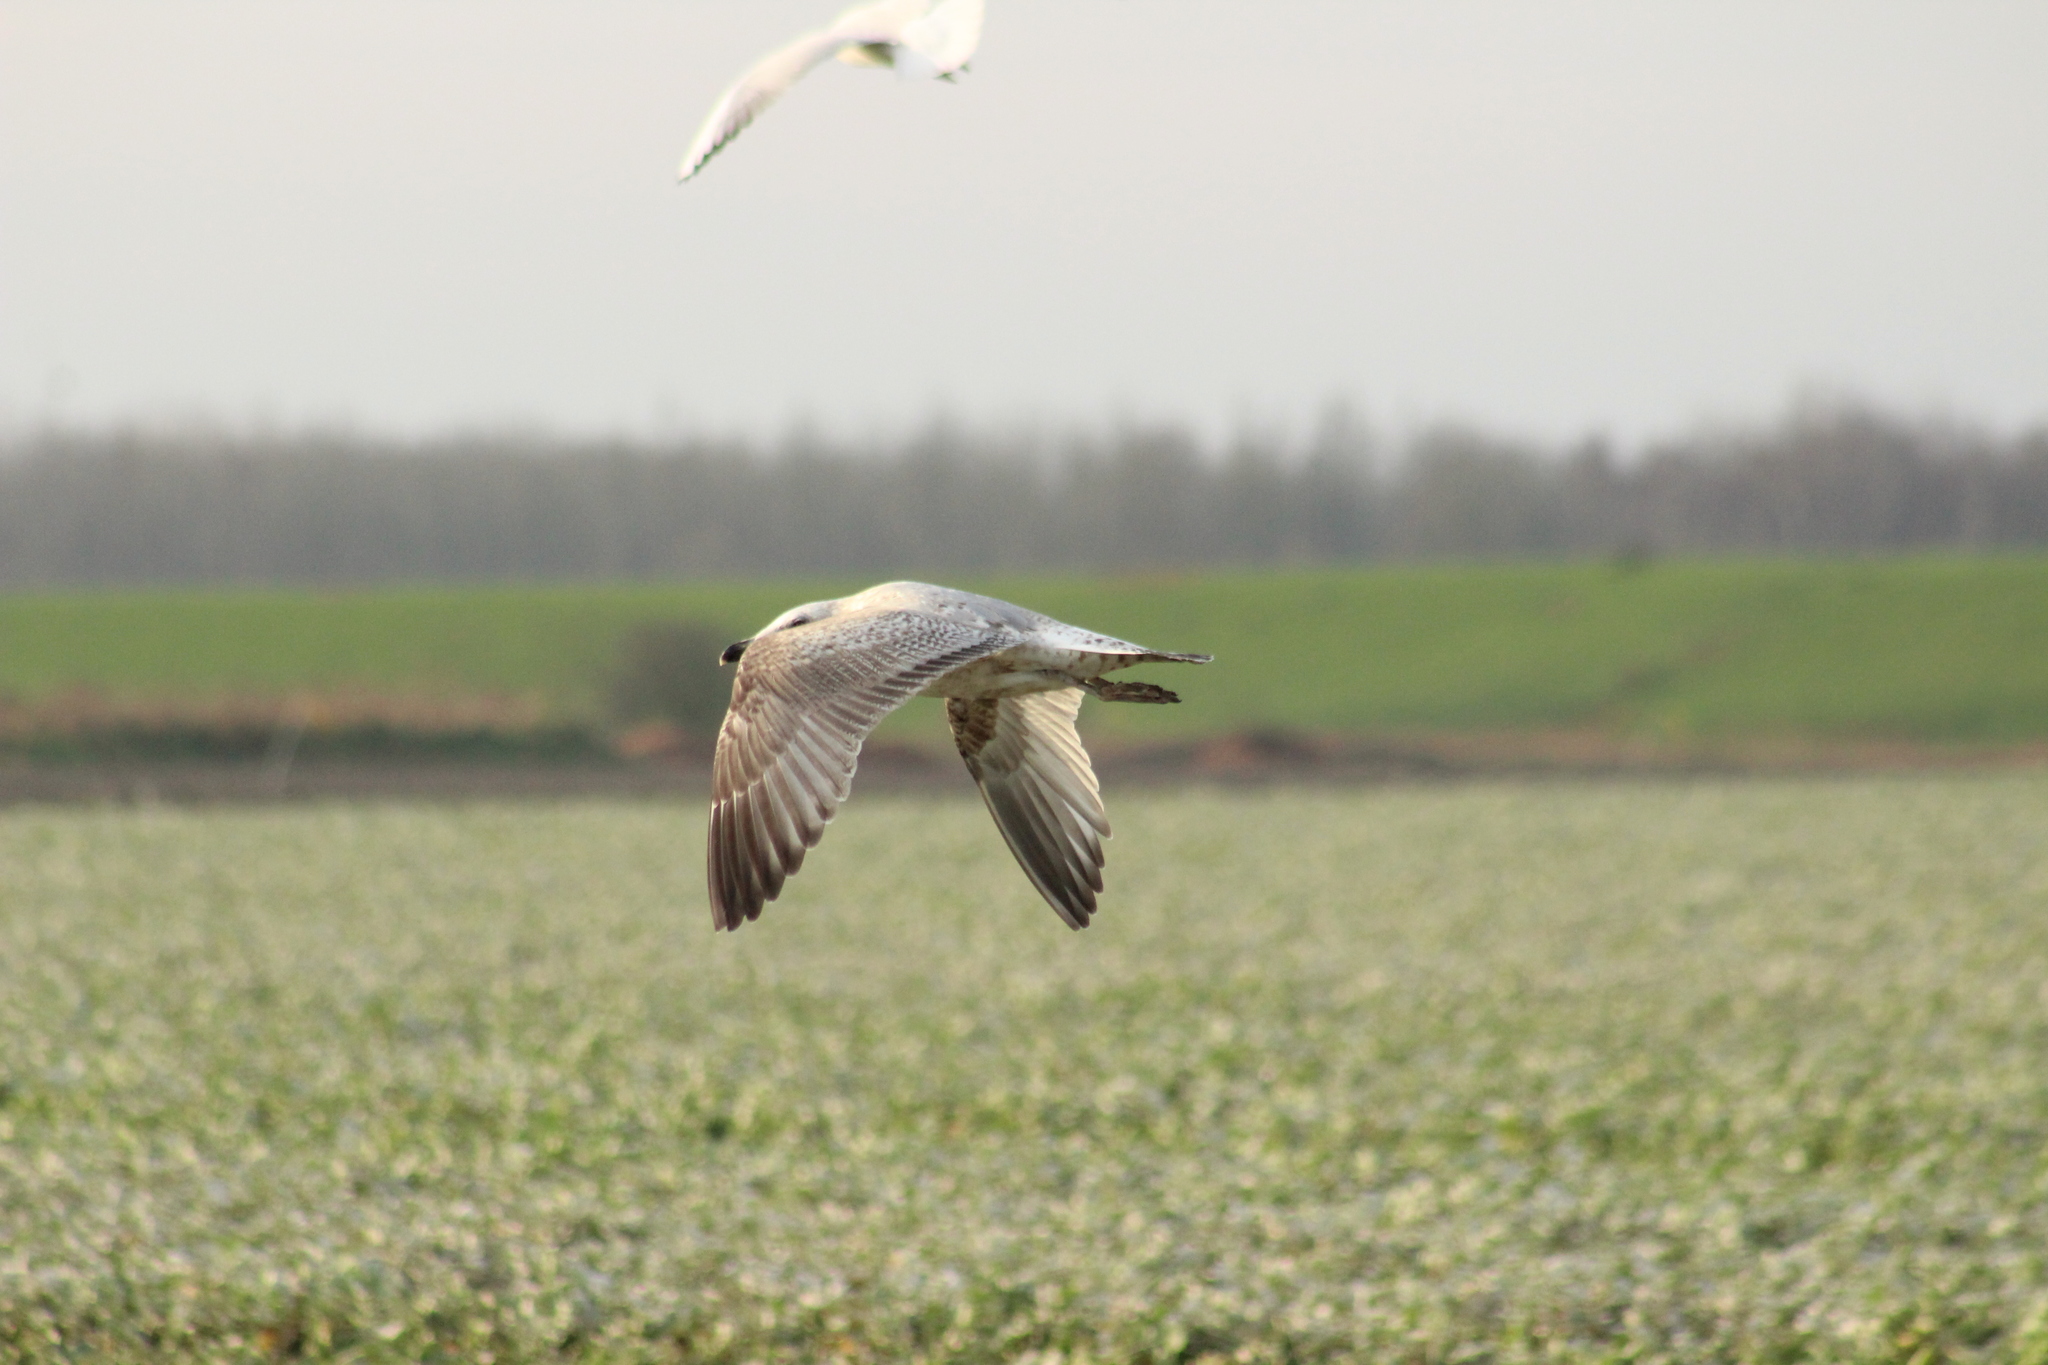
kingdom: Animalia
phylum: Chordata
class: Aves
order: Charadriiformes
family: Laridae
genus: Larus
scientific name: Larus argentatus
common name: Herring gull
